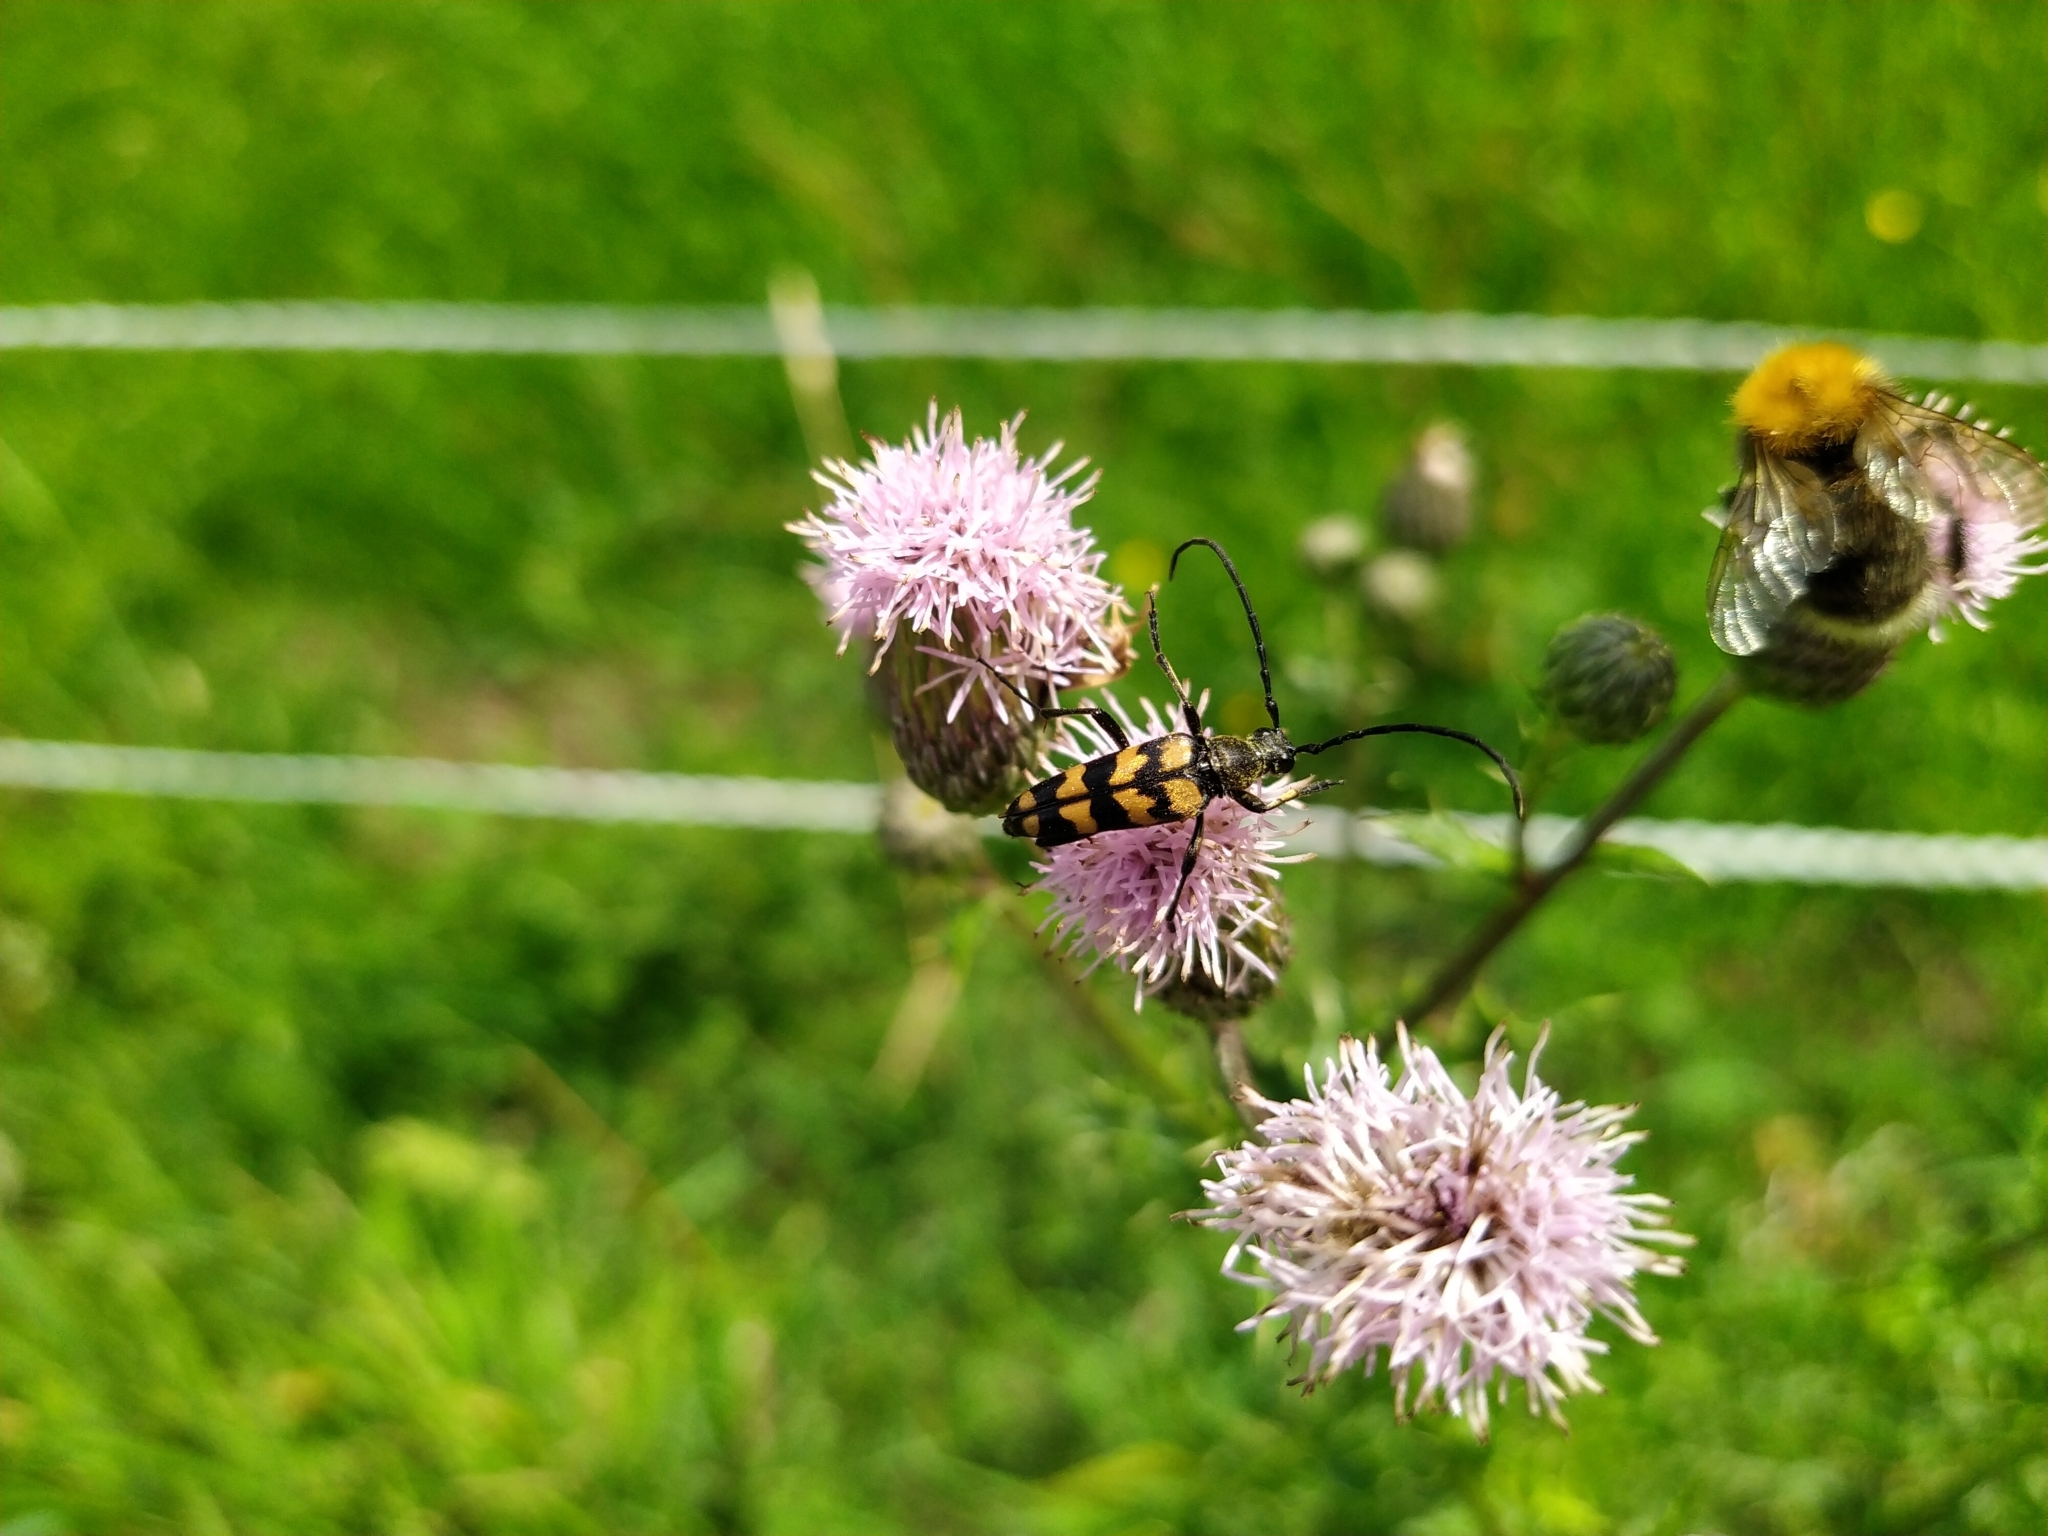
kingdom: Animalia
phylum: Arthropoda
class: Insecta
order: Coleoptera
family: Cerambycidae
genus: Leptura
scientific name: Leptura quadrifasciata
